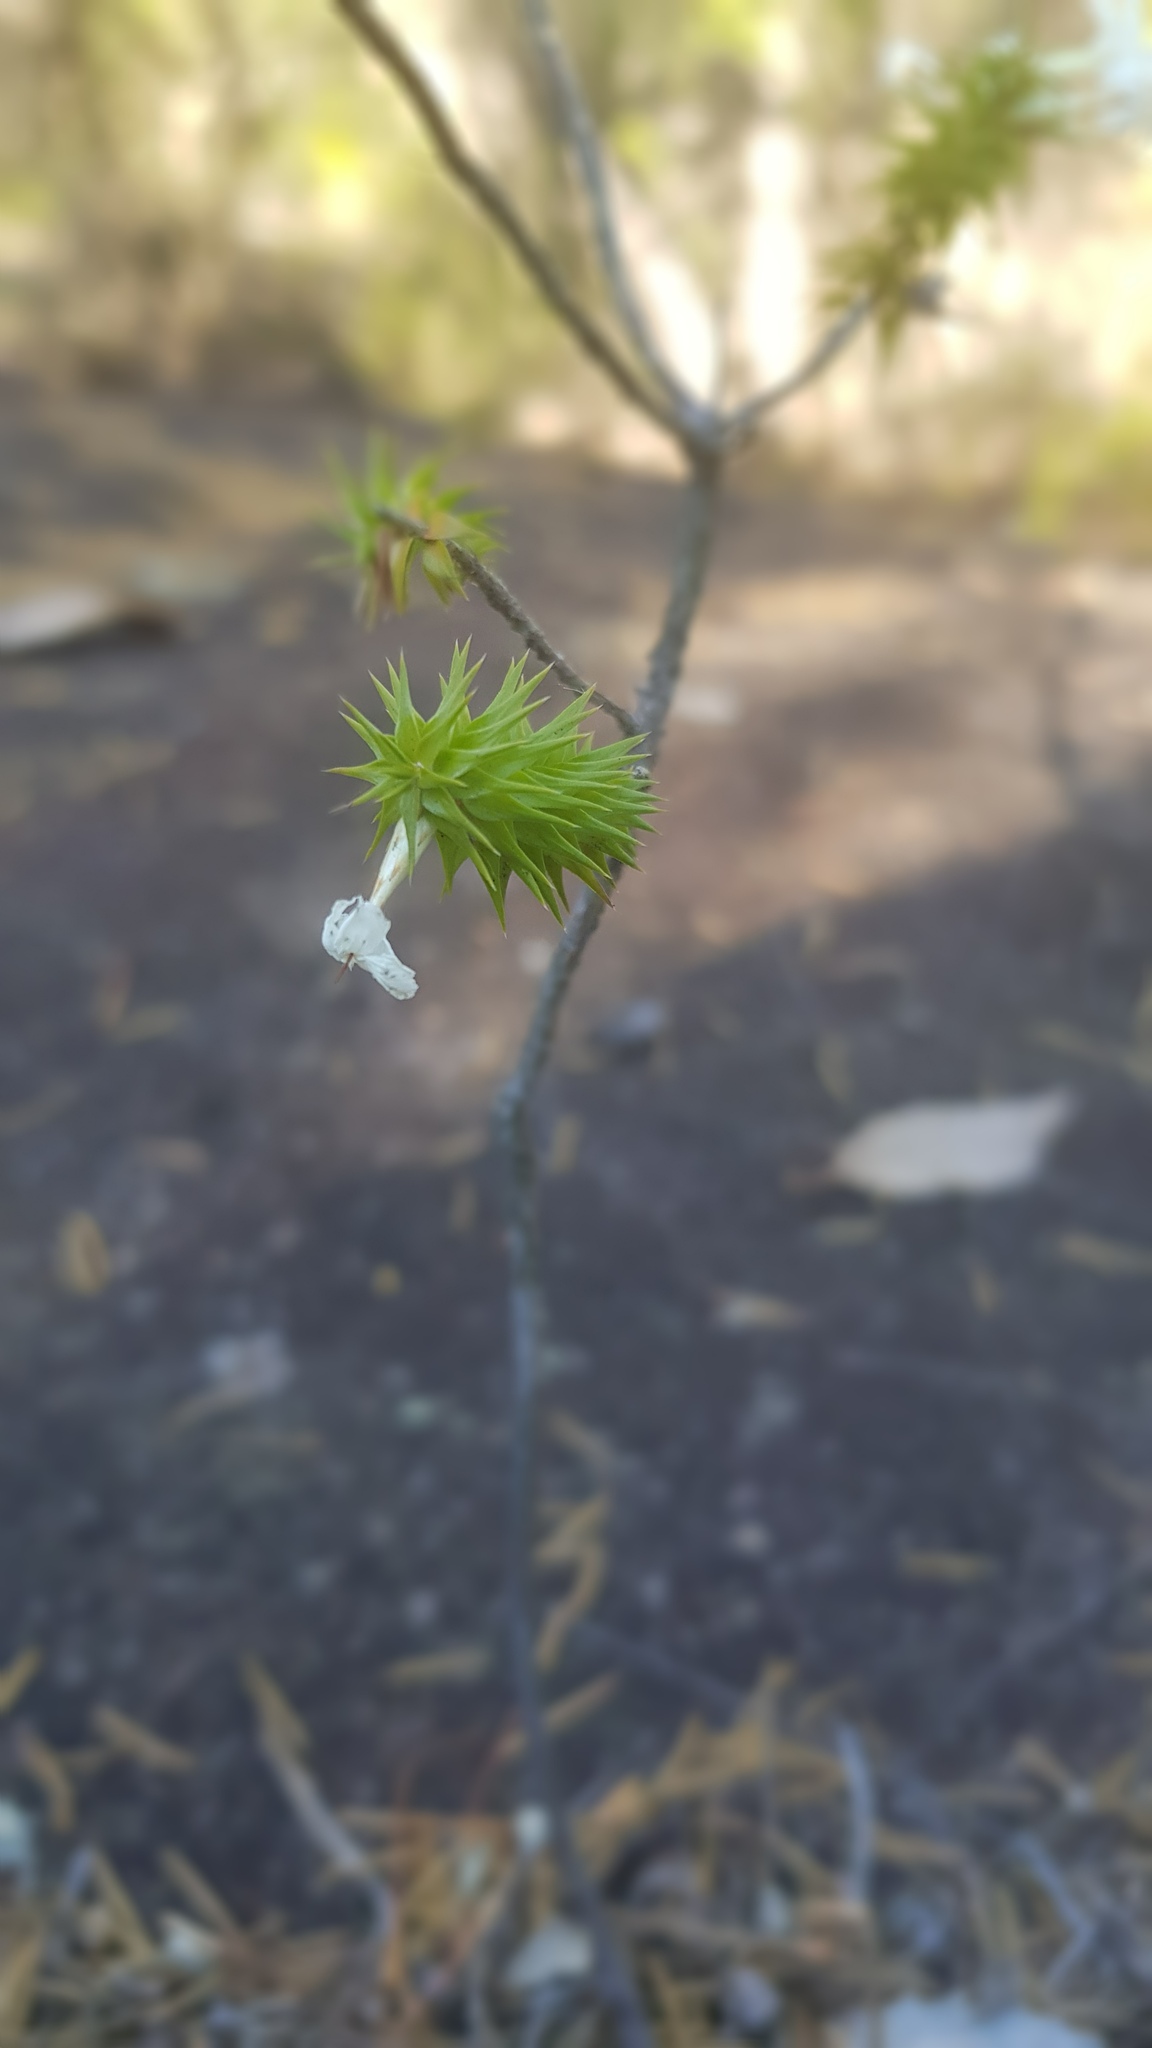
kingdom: Plantae
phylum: Tracheophyta
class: Magnoliopsida
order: Ericales
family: Ericaceae
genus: Woollsia
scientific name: Woollsia pungens
